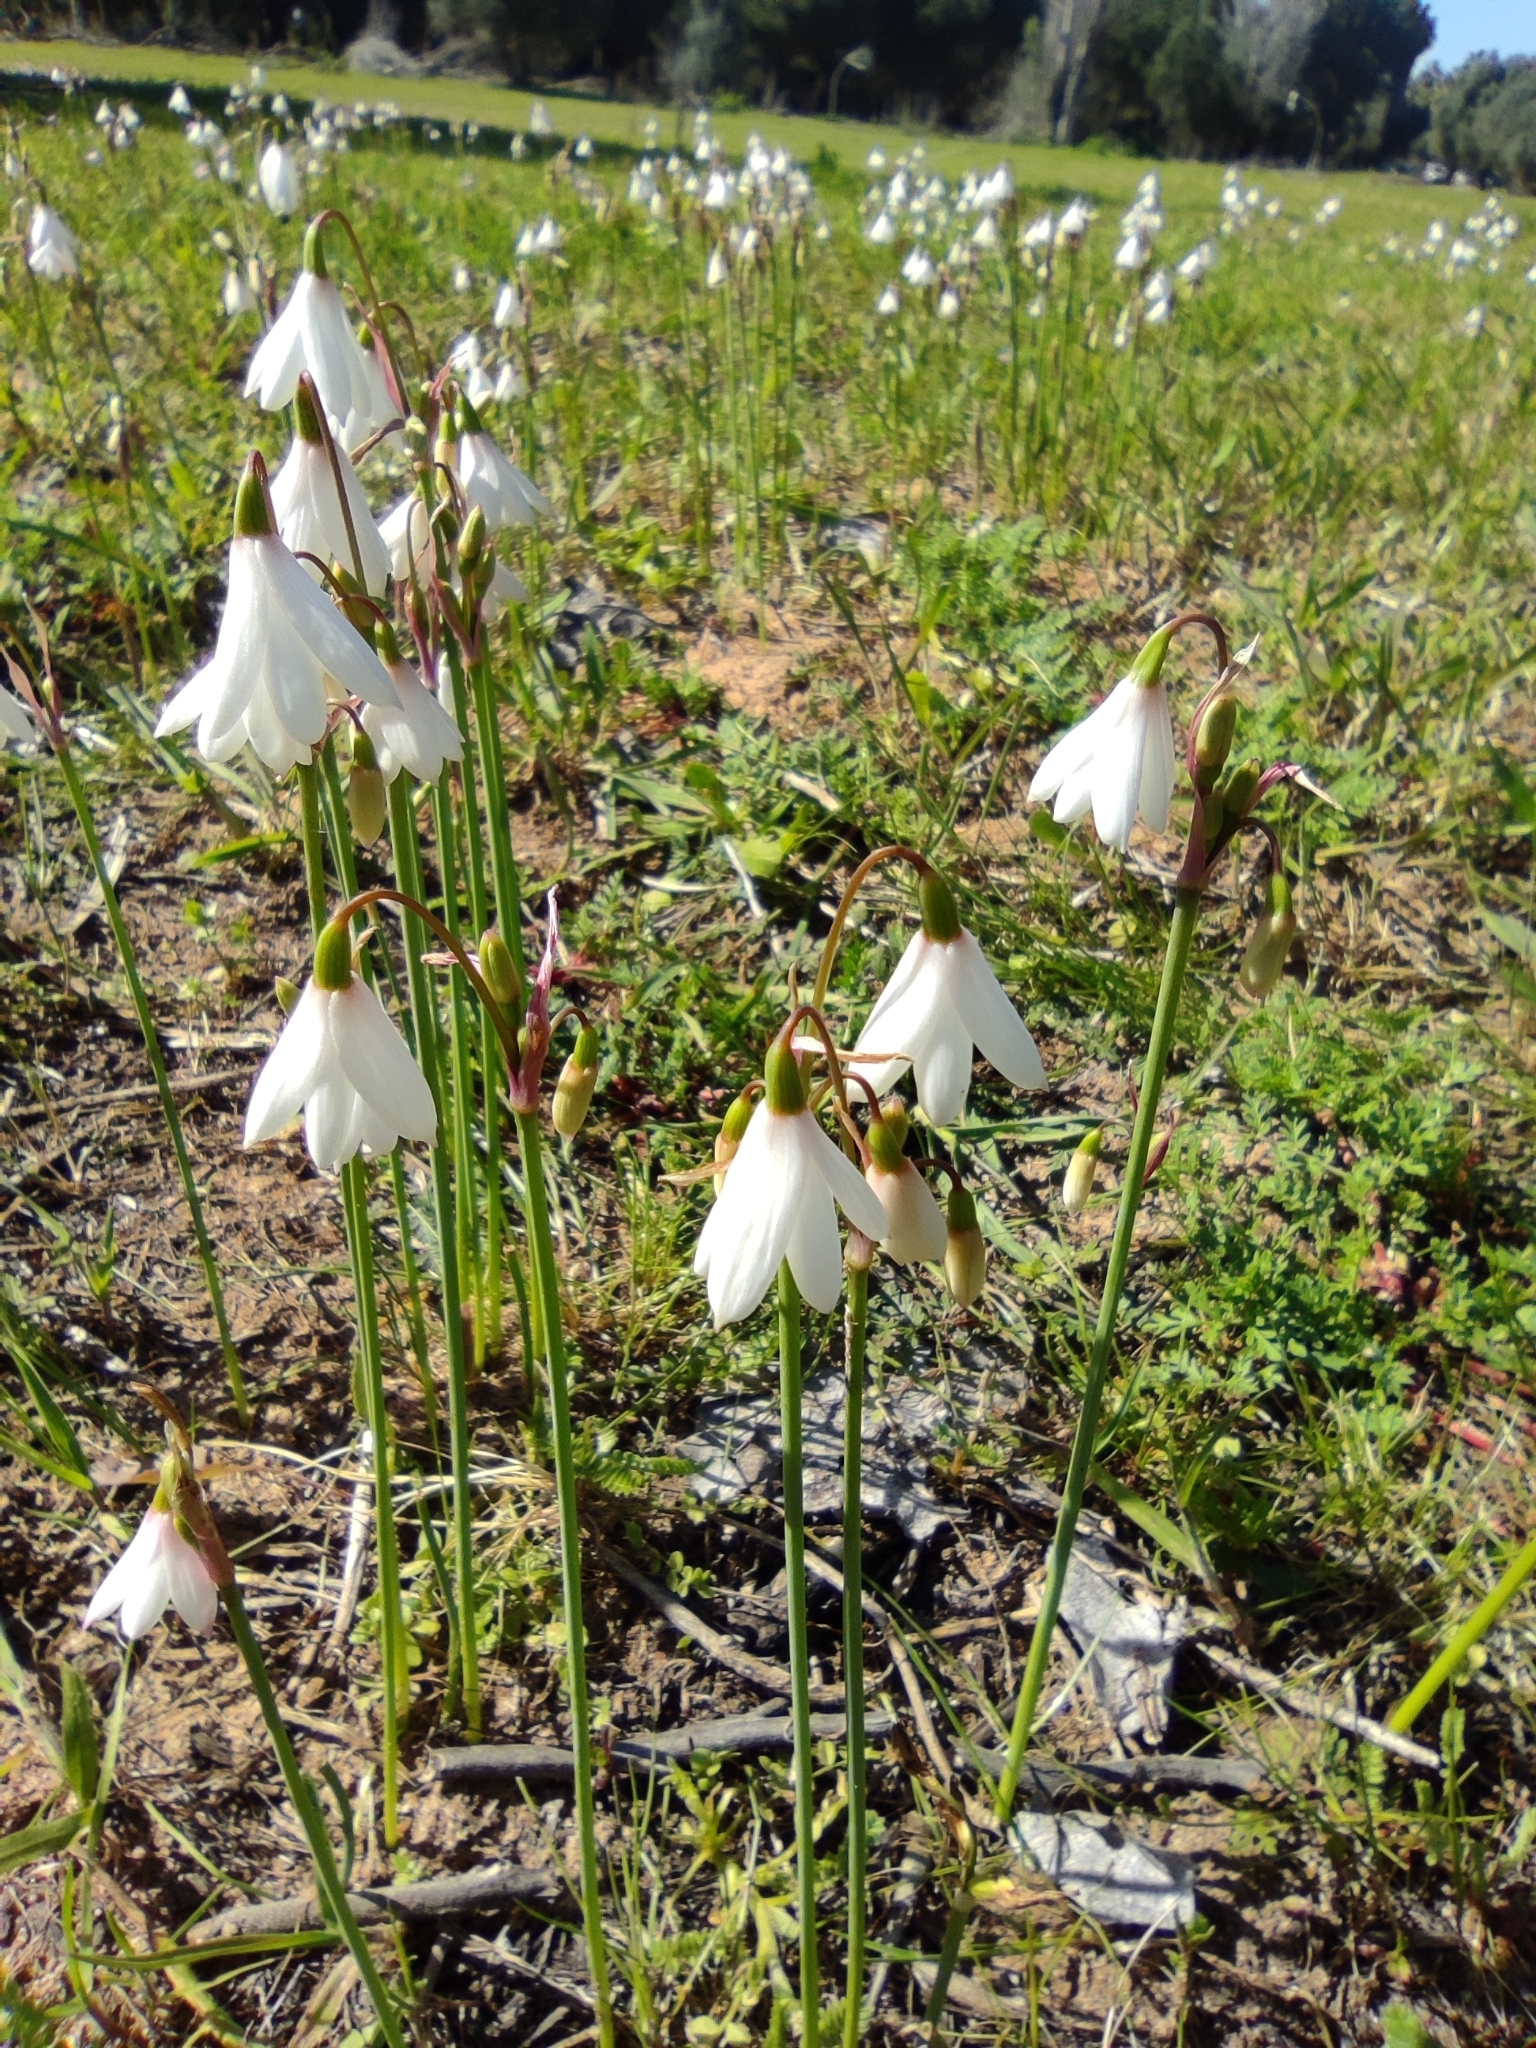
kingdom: Plantae
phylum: Tracheophyta
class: Liliopsida
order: Asparagales
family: Amaryllidaceae
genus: Acis
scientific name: Acis trichophylla
